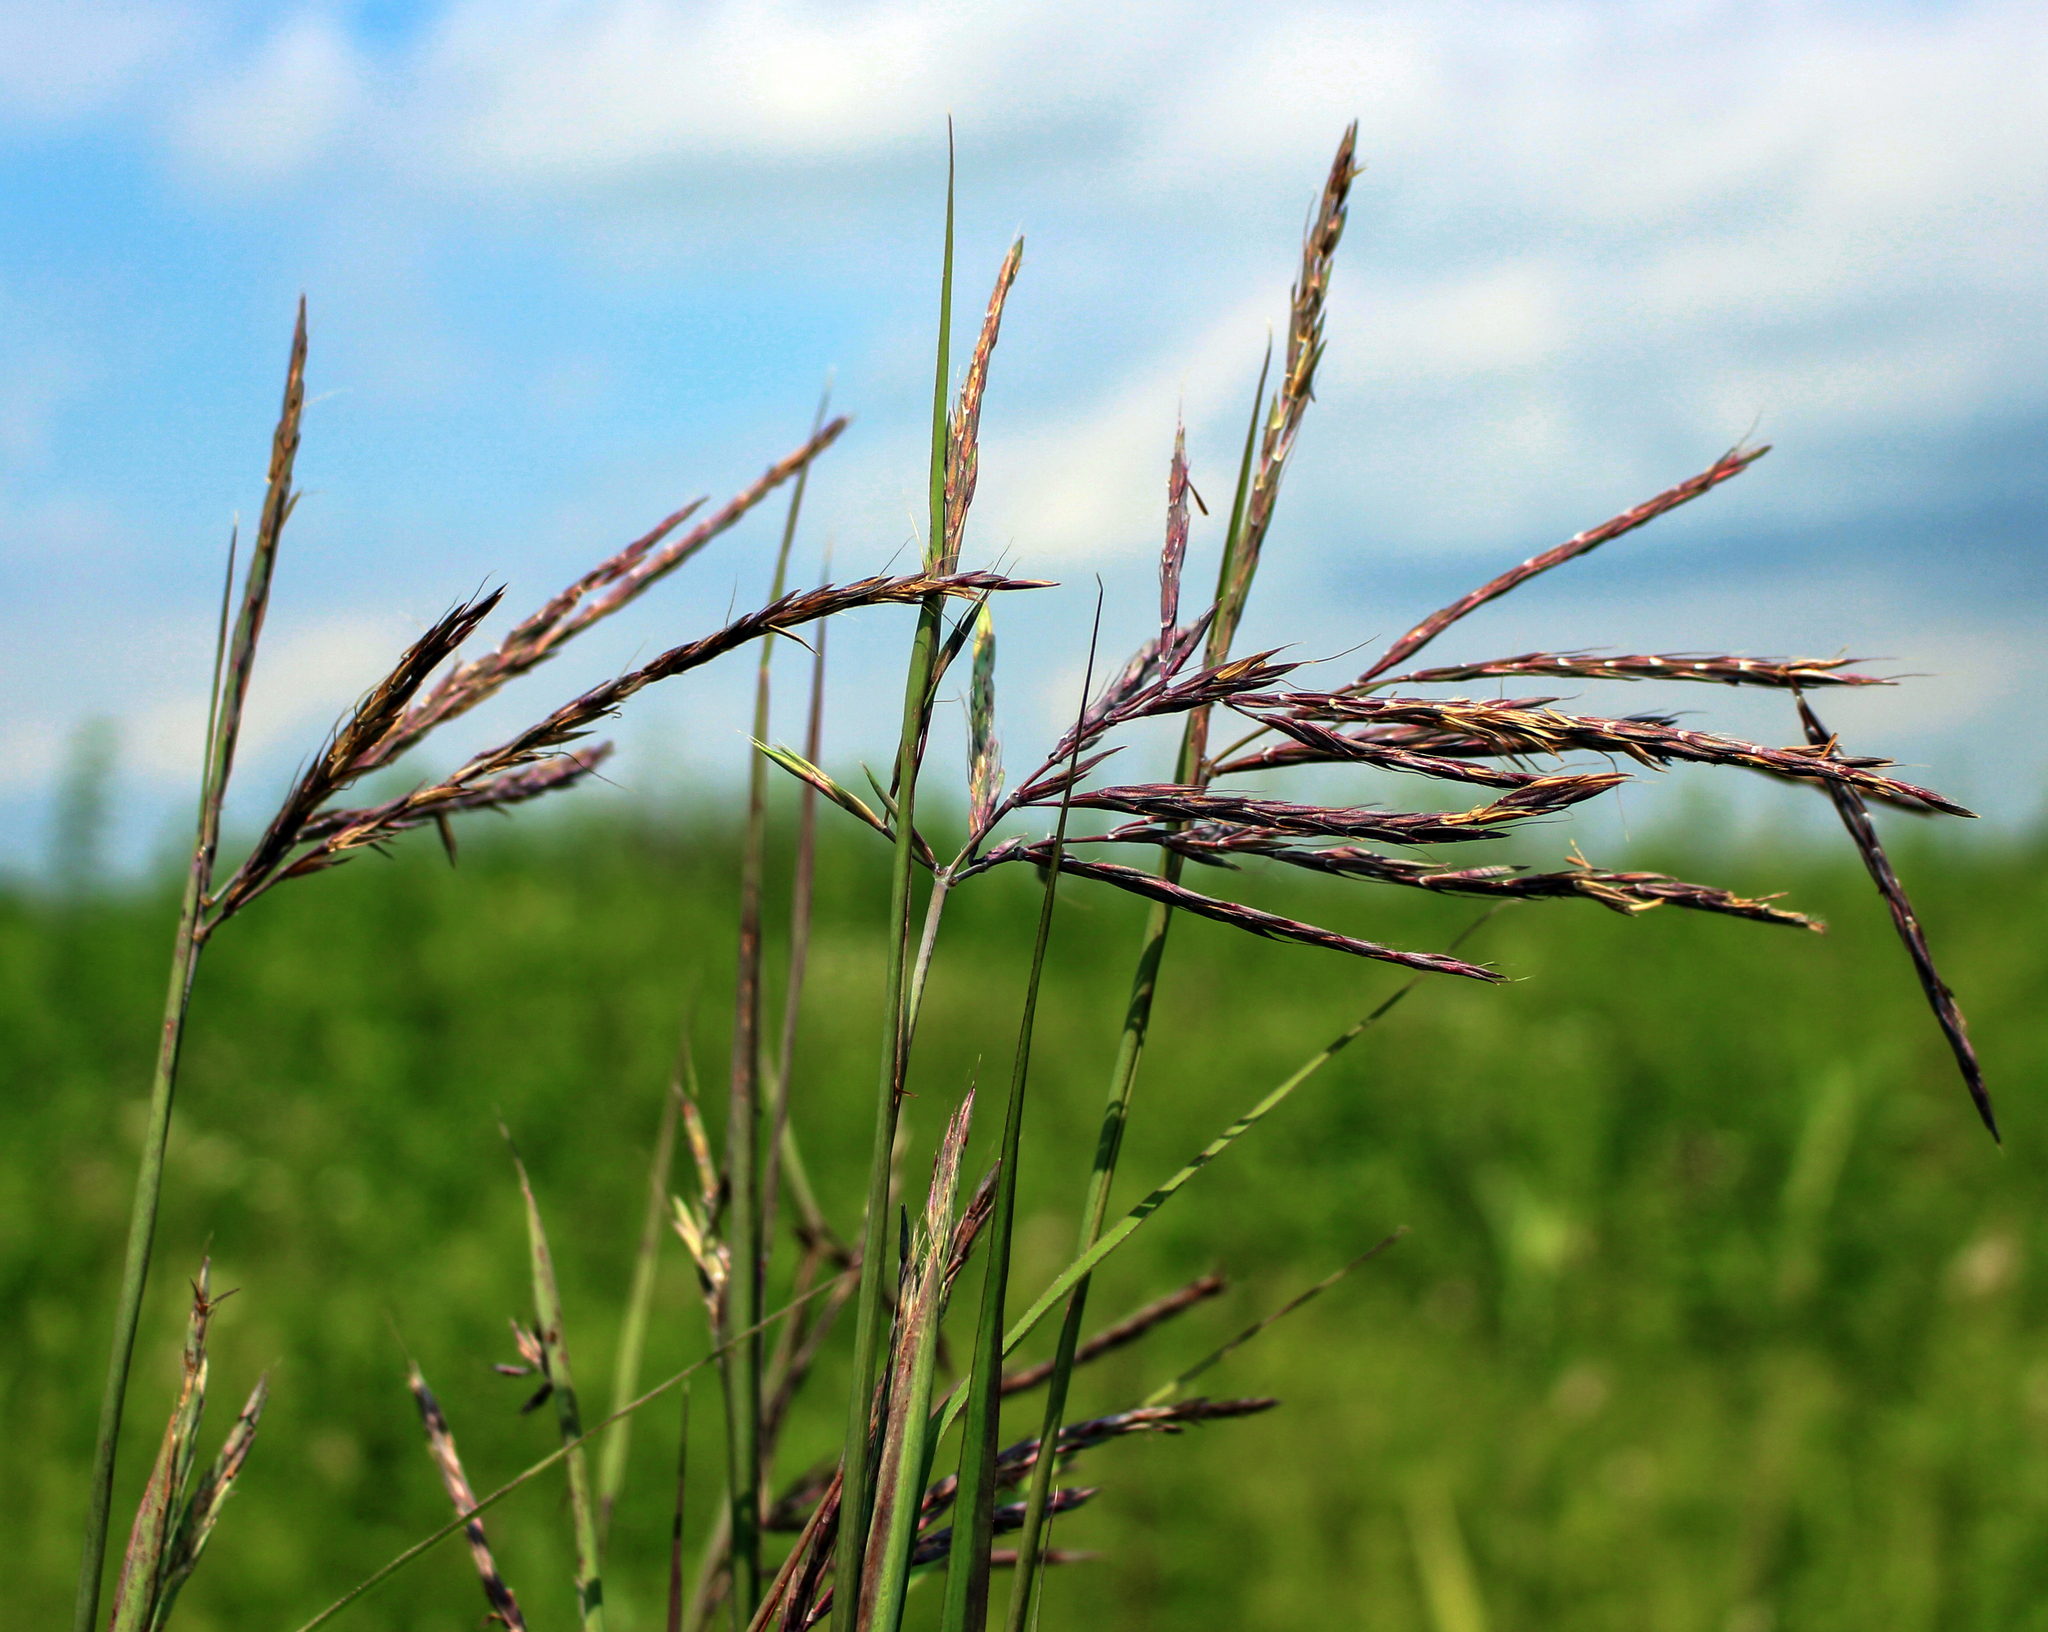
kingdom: Plantae
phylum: Tracheophyta
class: Liliopsida
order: Poales
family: Poaceae
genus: Andropogon
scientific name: Andropogon gerardi
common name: Big bluestem
